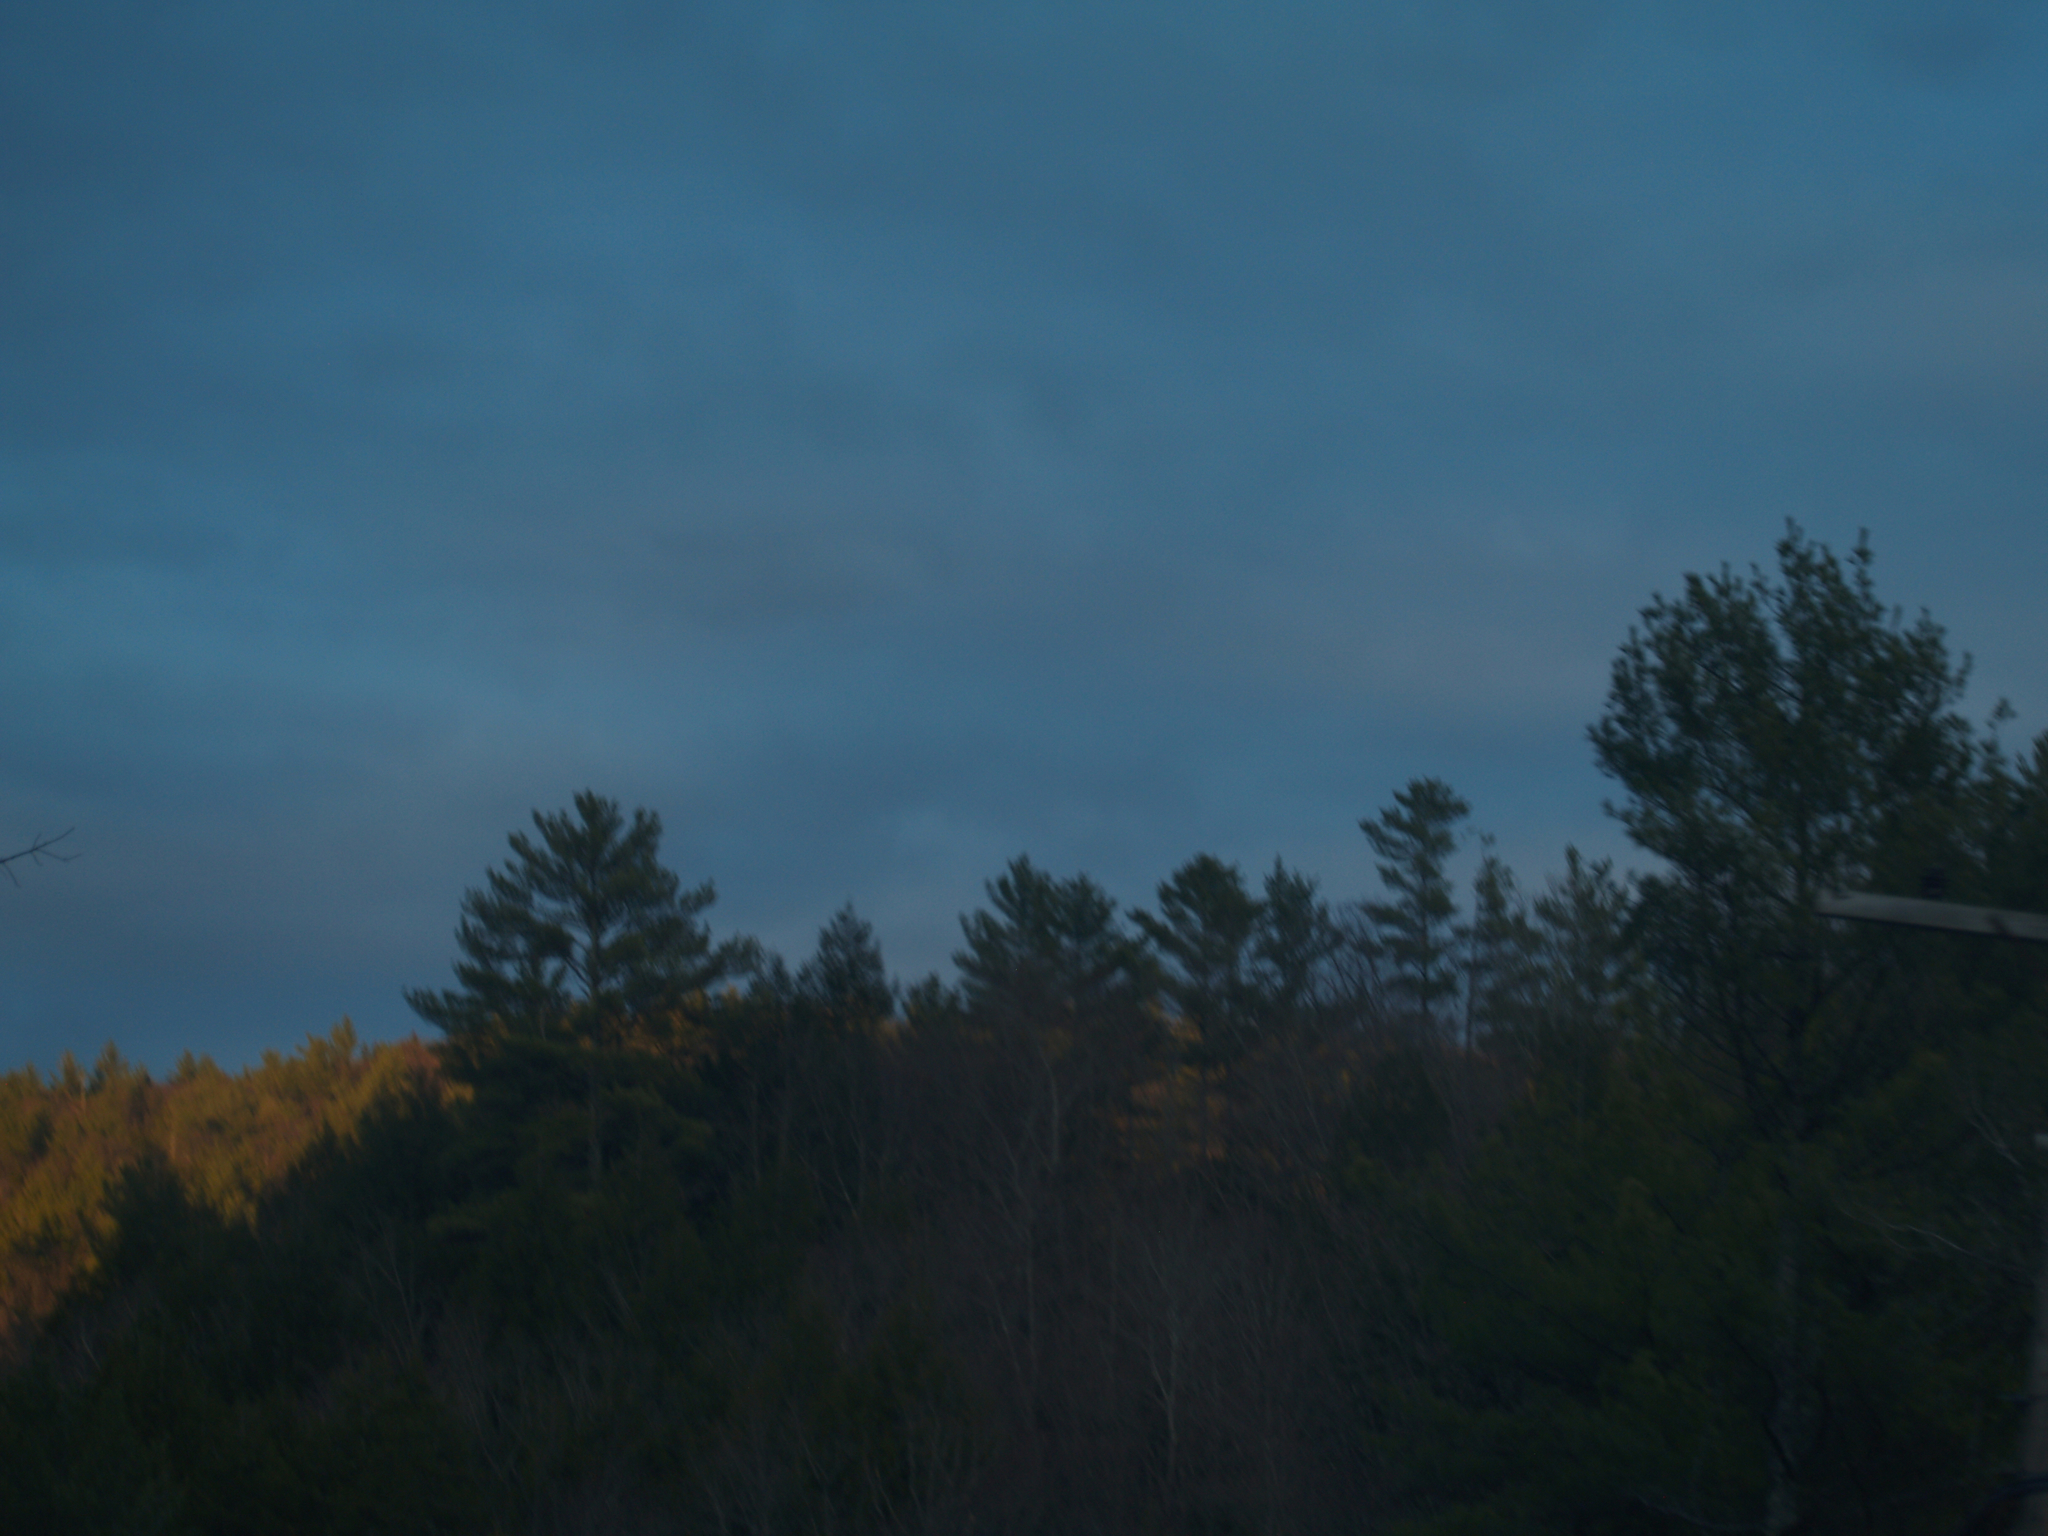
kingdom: Plantae
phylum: Tracheophyta
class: Pinopsida
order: Pinales
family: Pinaceae
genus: Pinus
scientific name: Pinus strobus
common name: Weymouth pine
